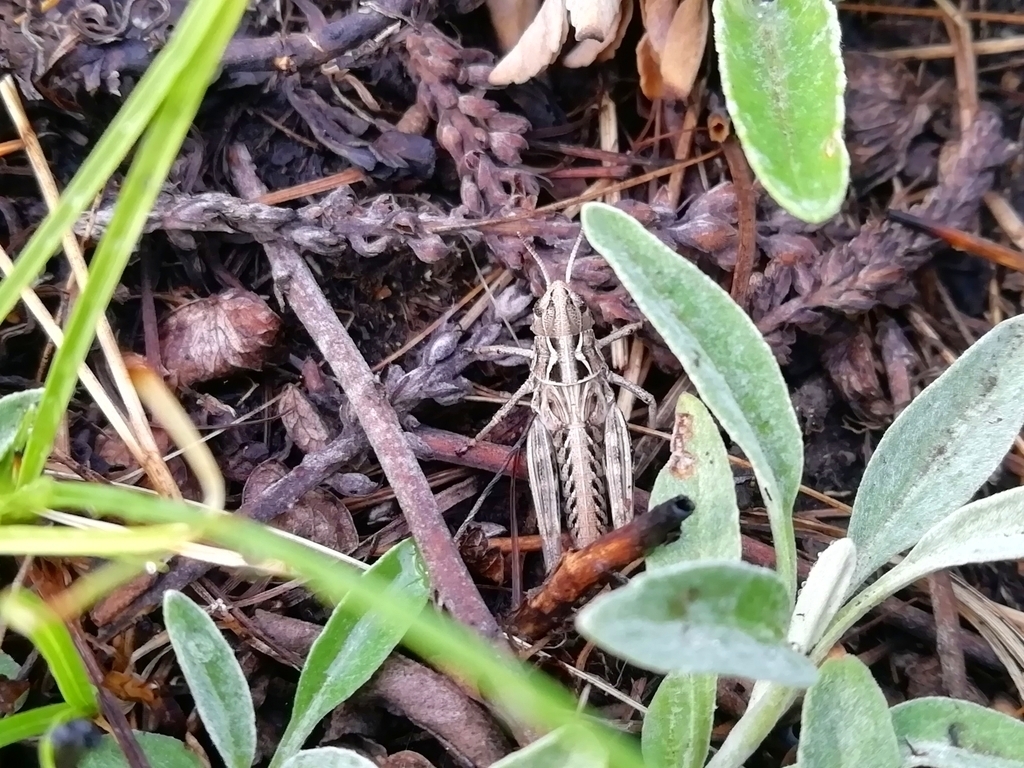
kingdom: Animalia
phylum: Arthropoda
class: Insecta
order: Orthoptera
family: Acrididae
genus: Arcyptera
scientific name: Arcyptera microptera
